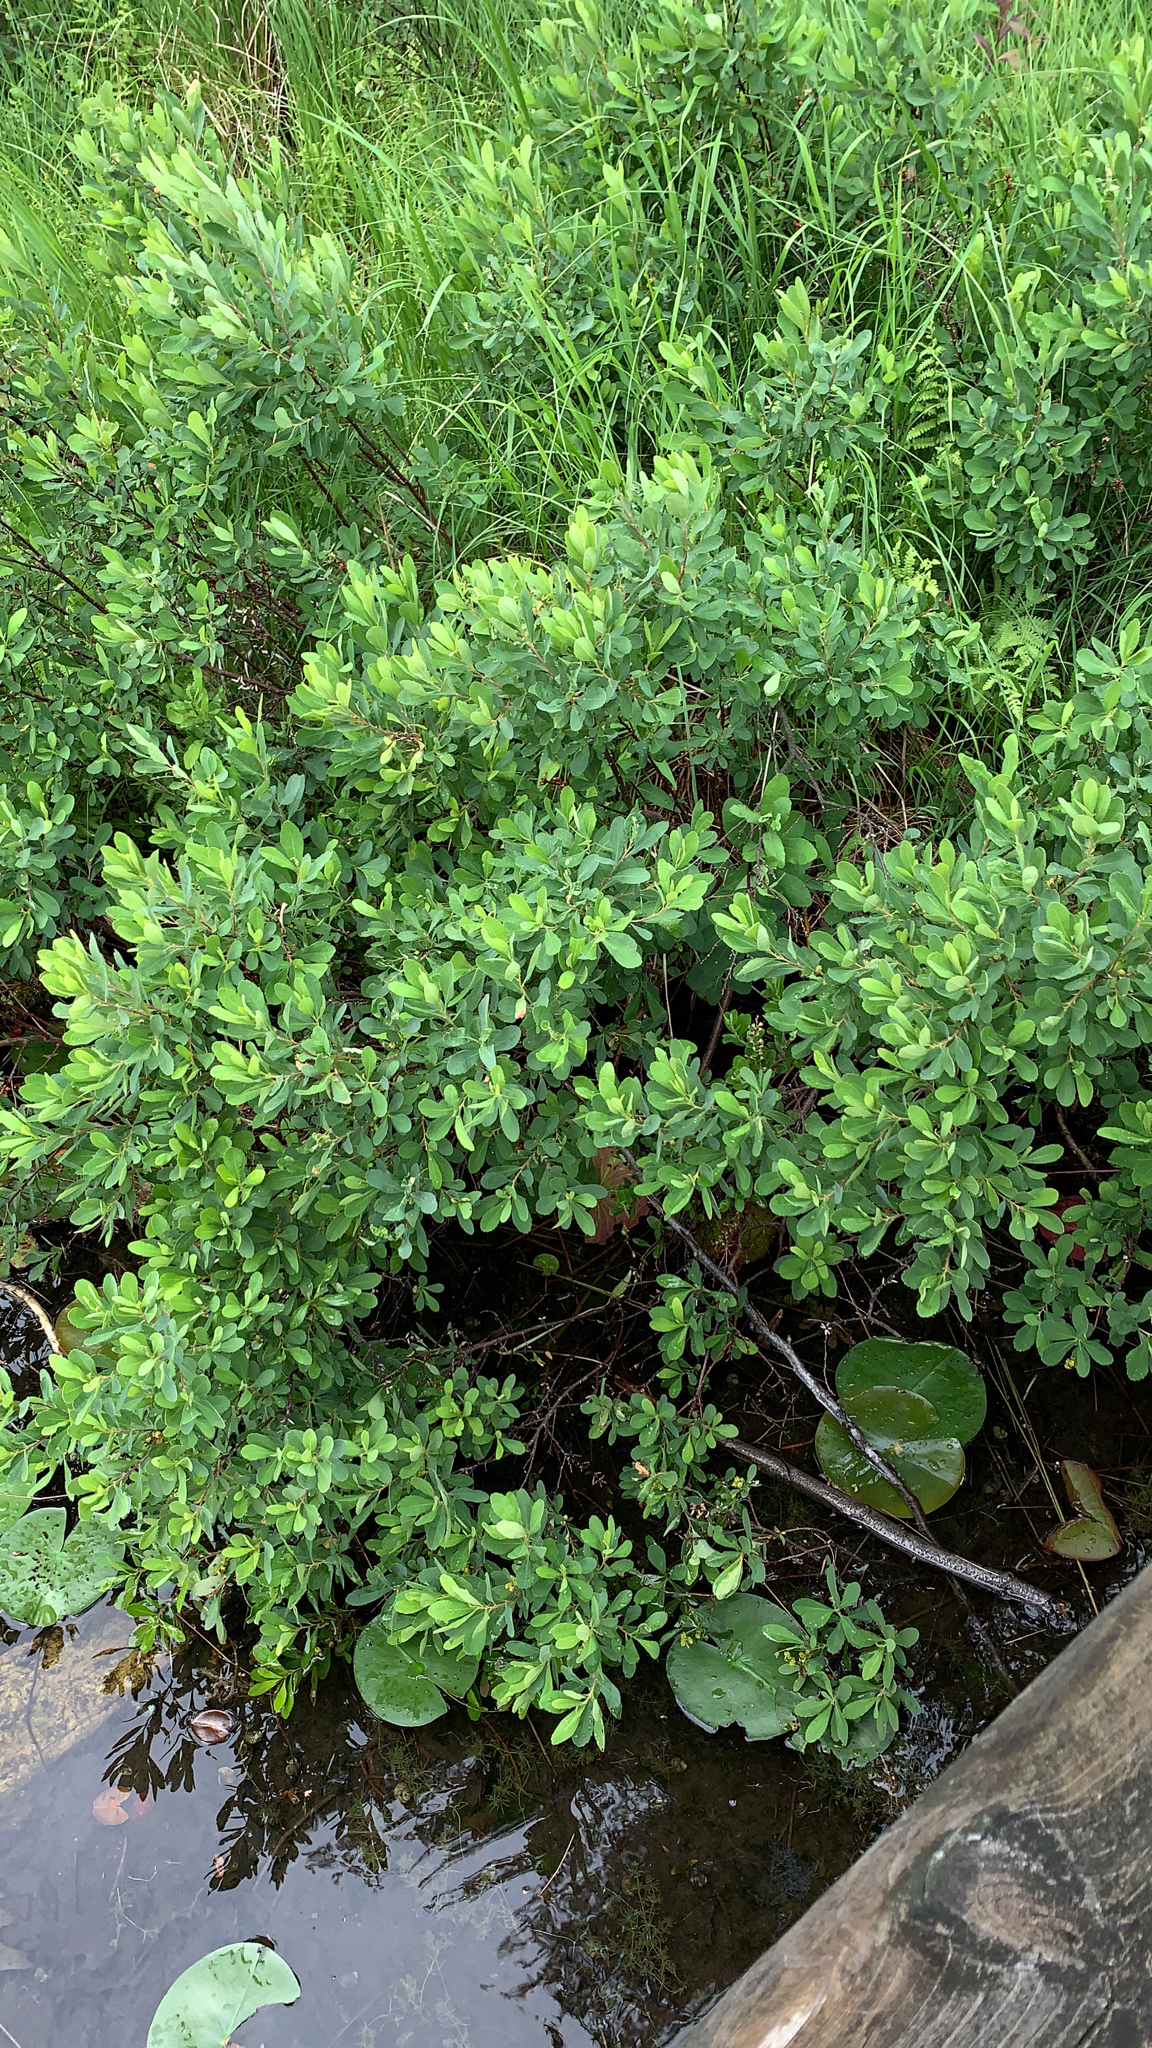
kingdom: Plantae
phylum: Tracheophyta
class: Magnoliopsida
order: Fagales
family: Myricaceae
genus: Myrica
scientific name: Myrica gale
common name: Sweet gale
